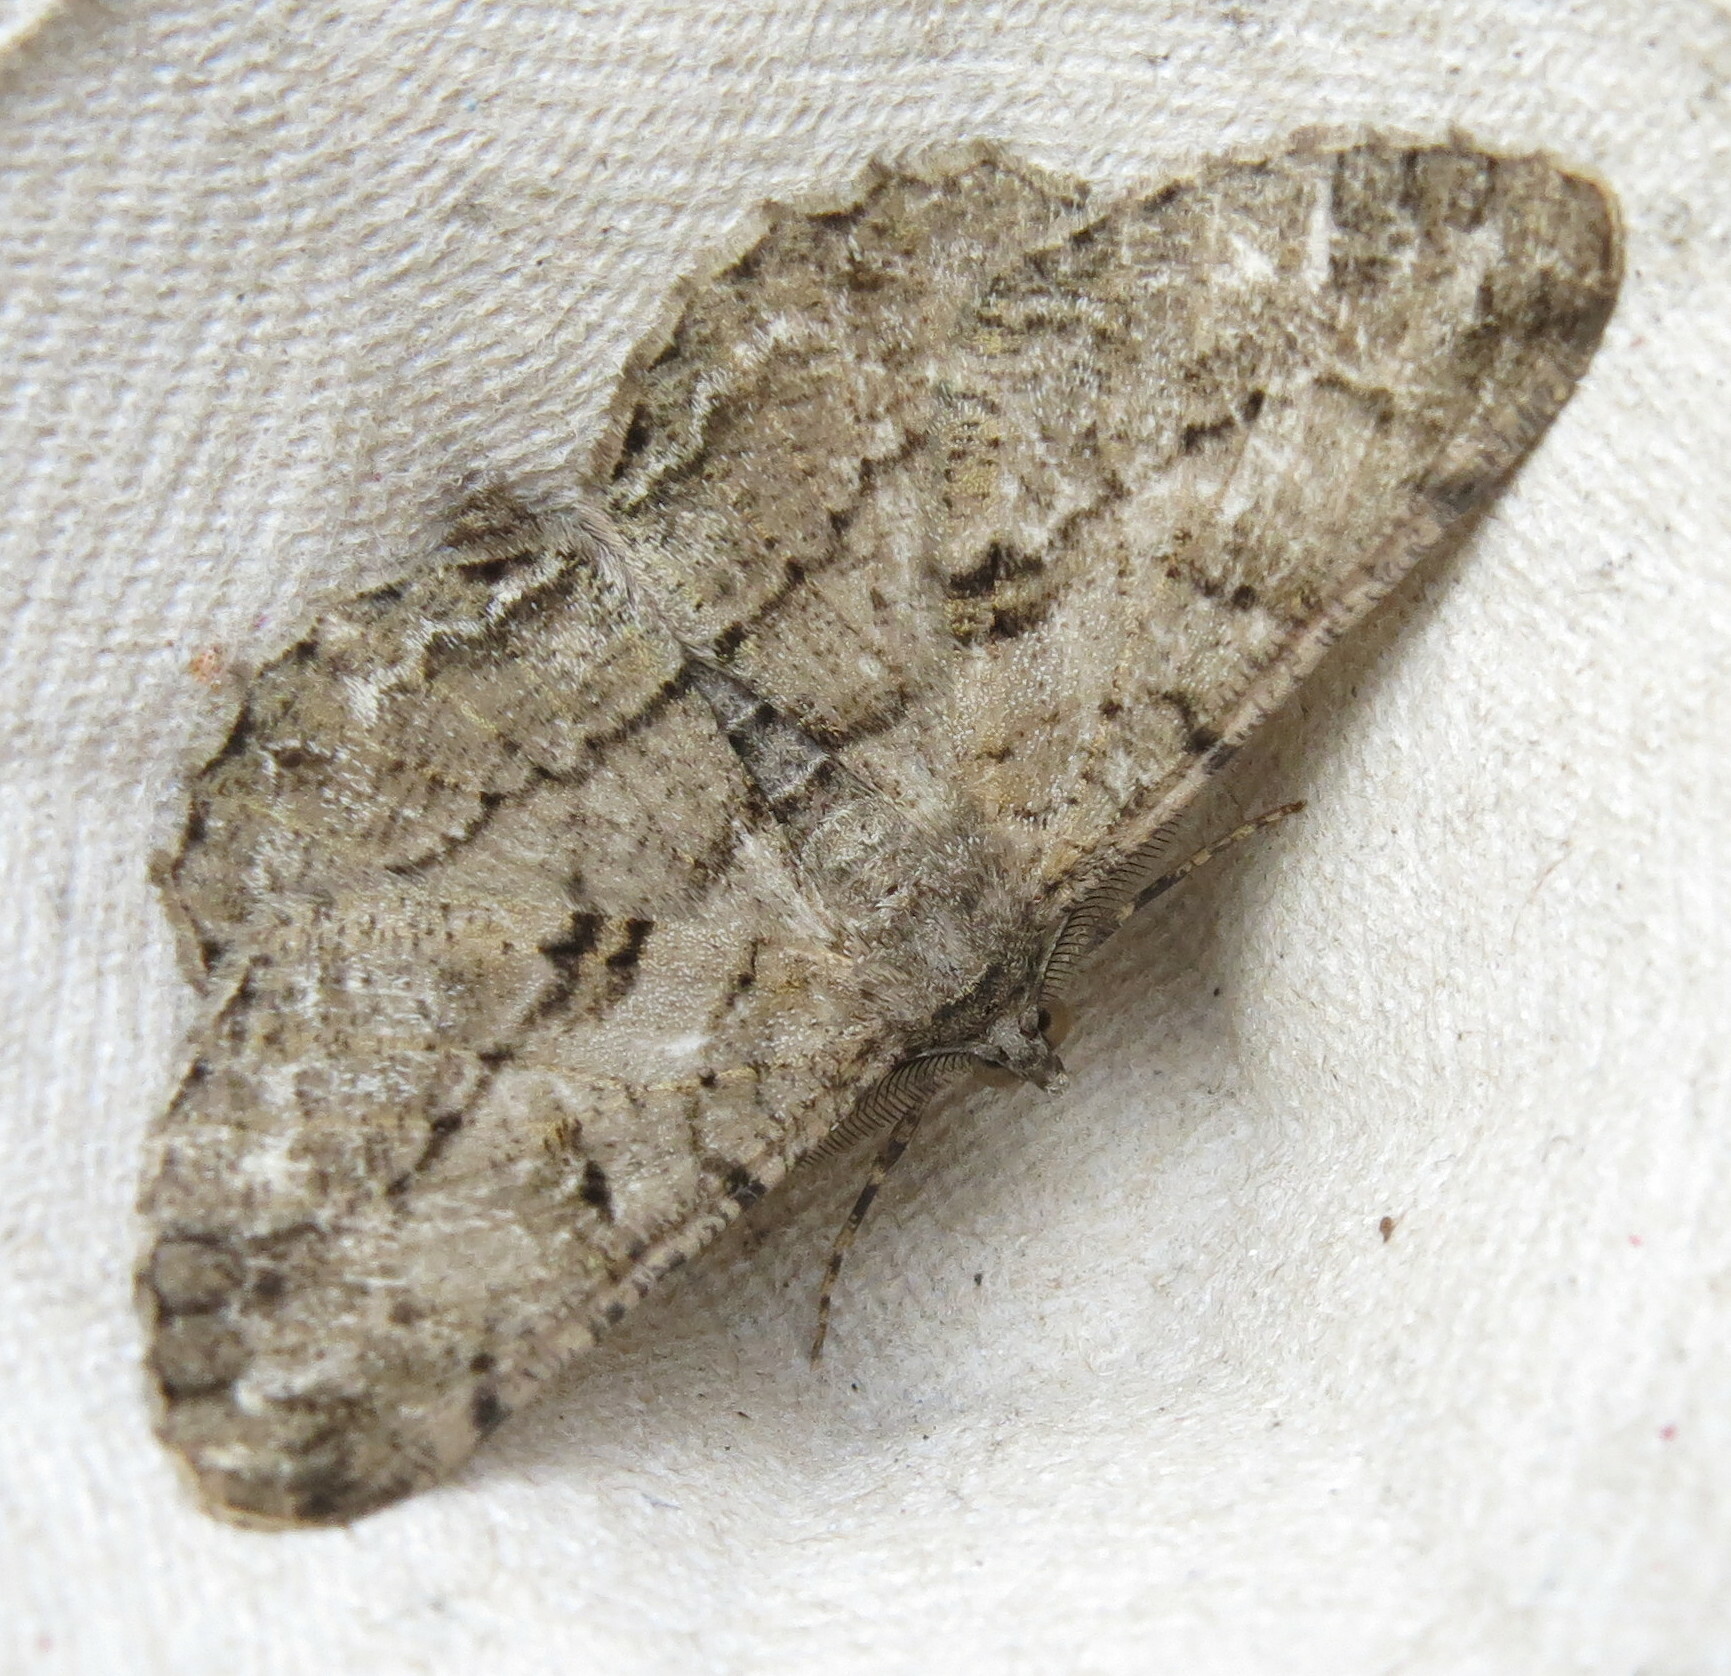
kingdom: Animalia
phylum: Arthropoda
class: Insecta
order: Lepidoptera
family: Geometridae
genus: Peribatodes
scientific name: Peribatodes rhomboidaria
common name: Willow beauty
